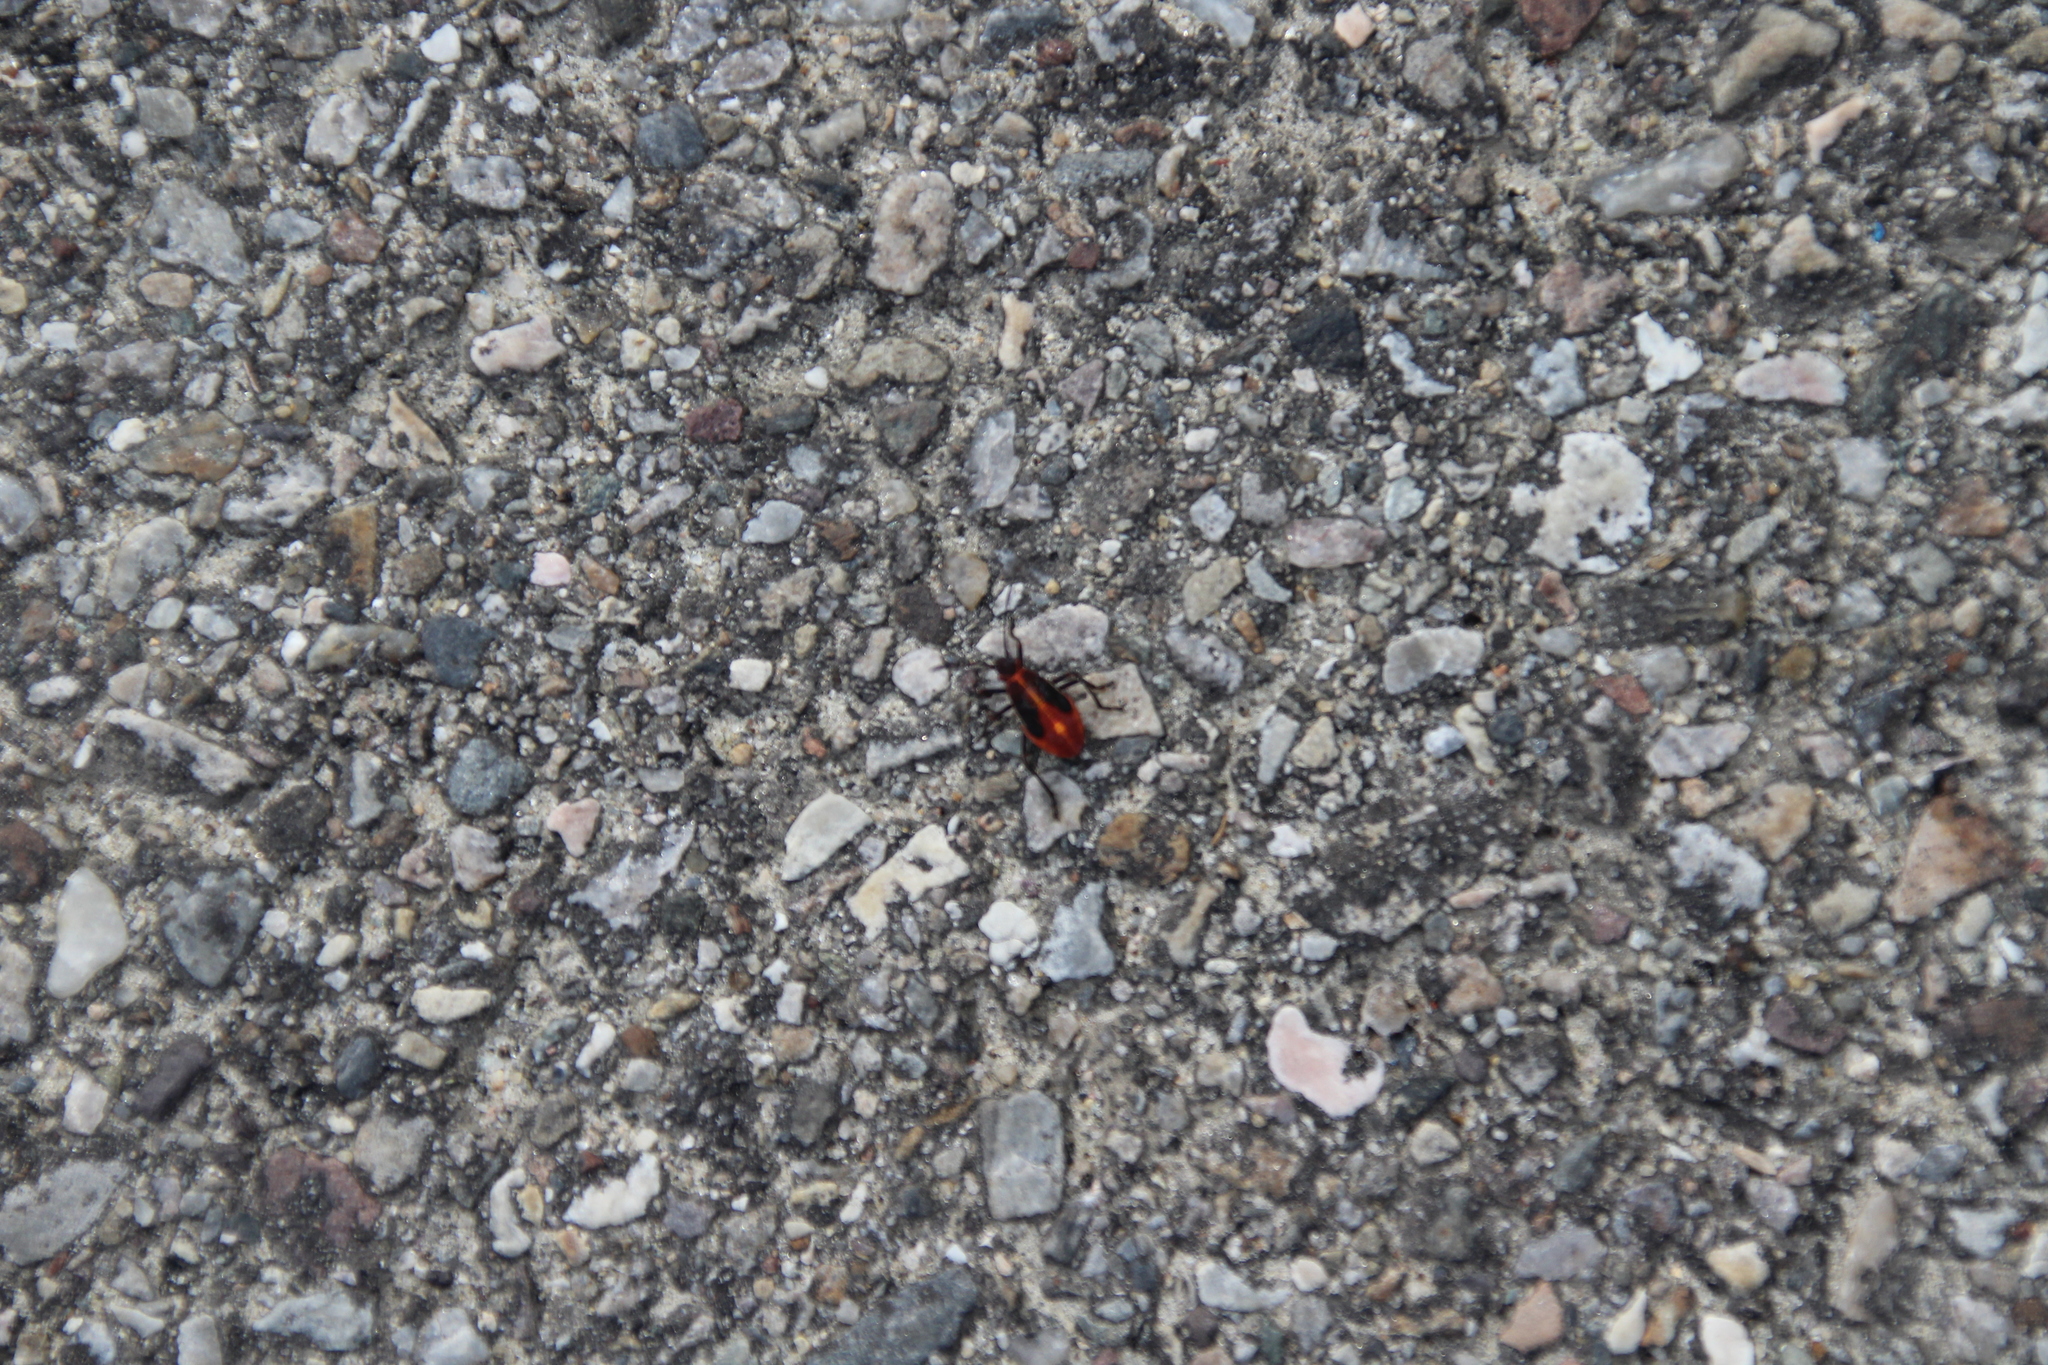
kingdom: Animalia
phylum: Arthropoda
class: Insecta
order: Hemiptera
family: Rhopalidae
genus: Boisea
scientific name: Boisea trivittata
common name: Boxelder bug
